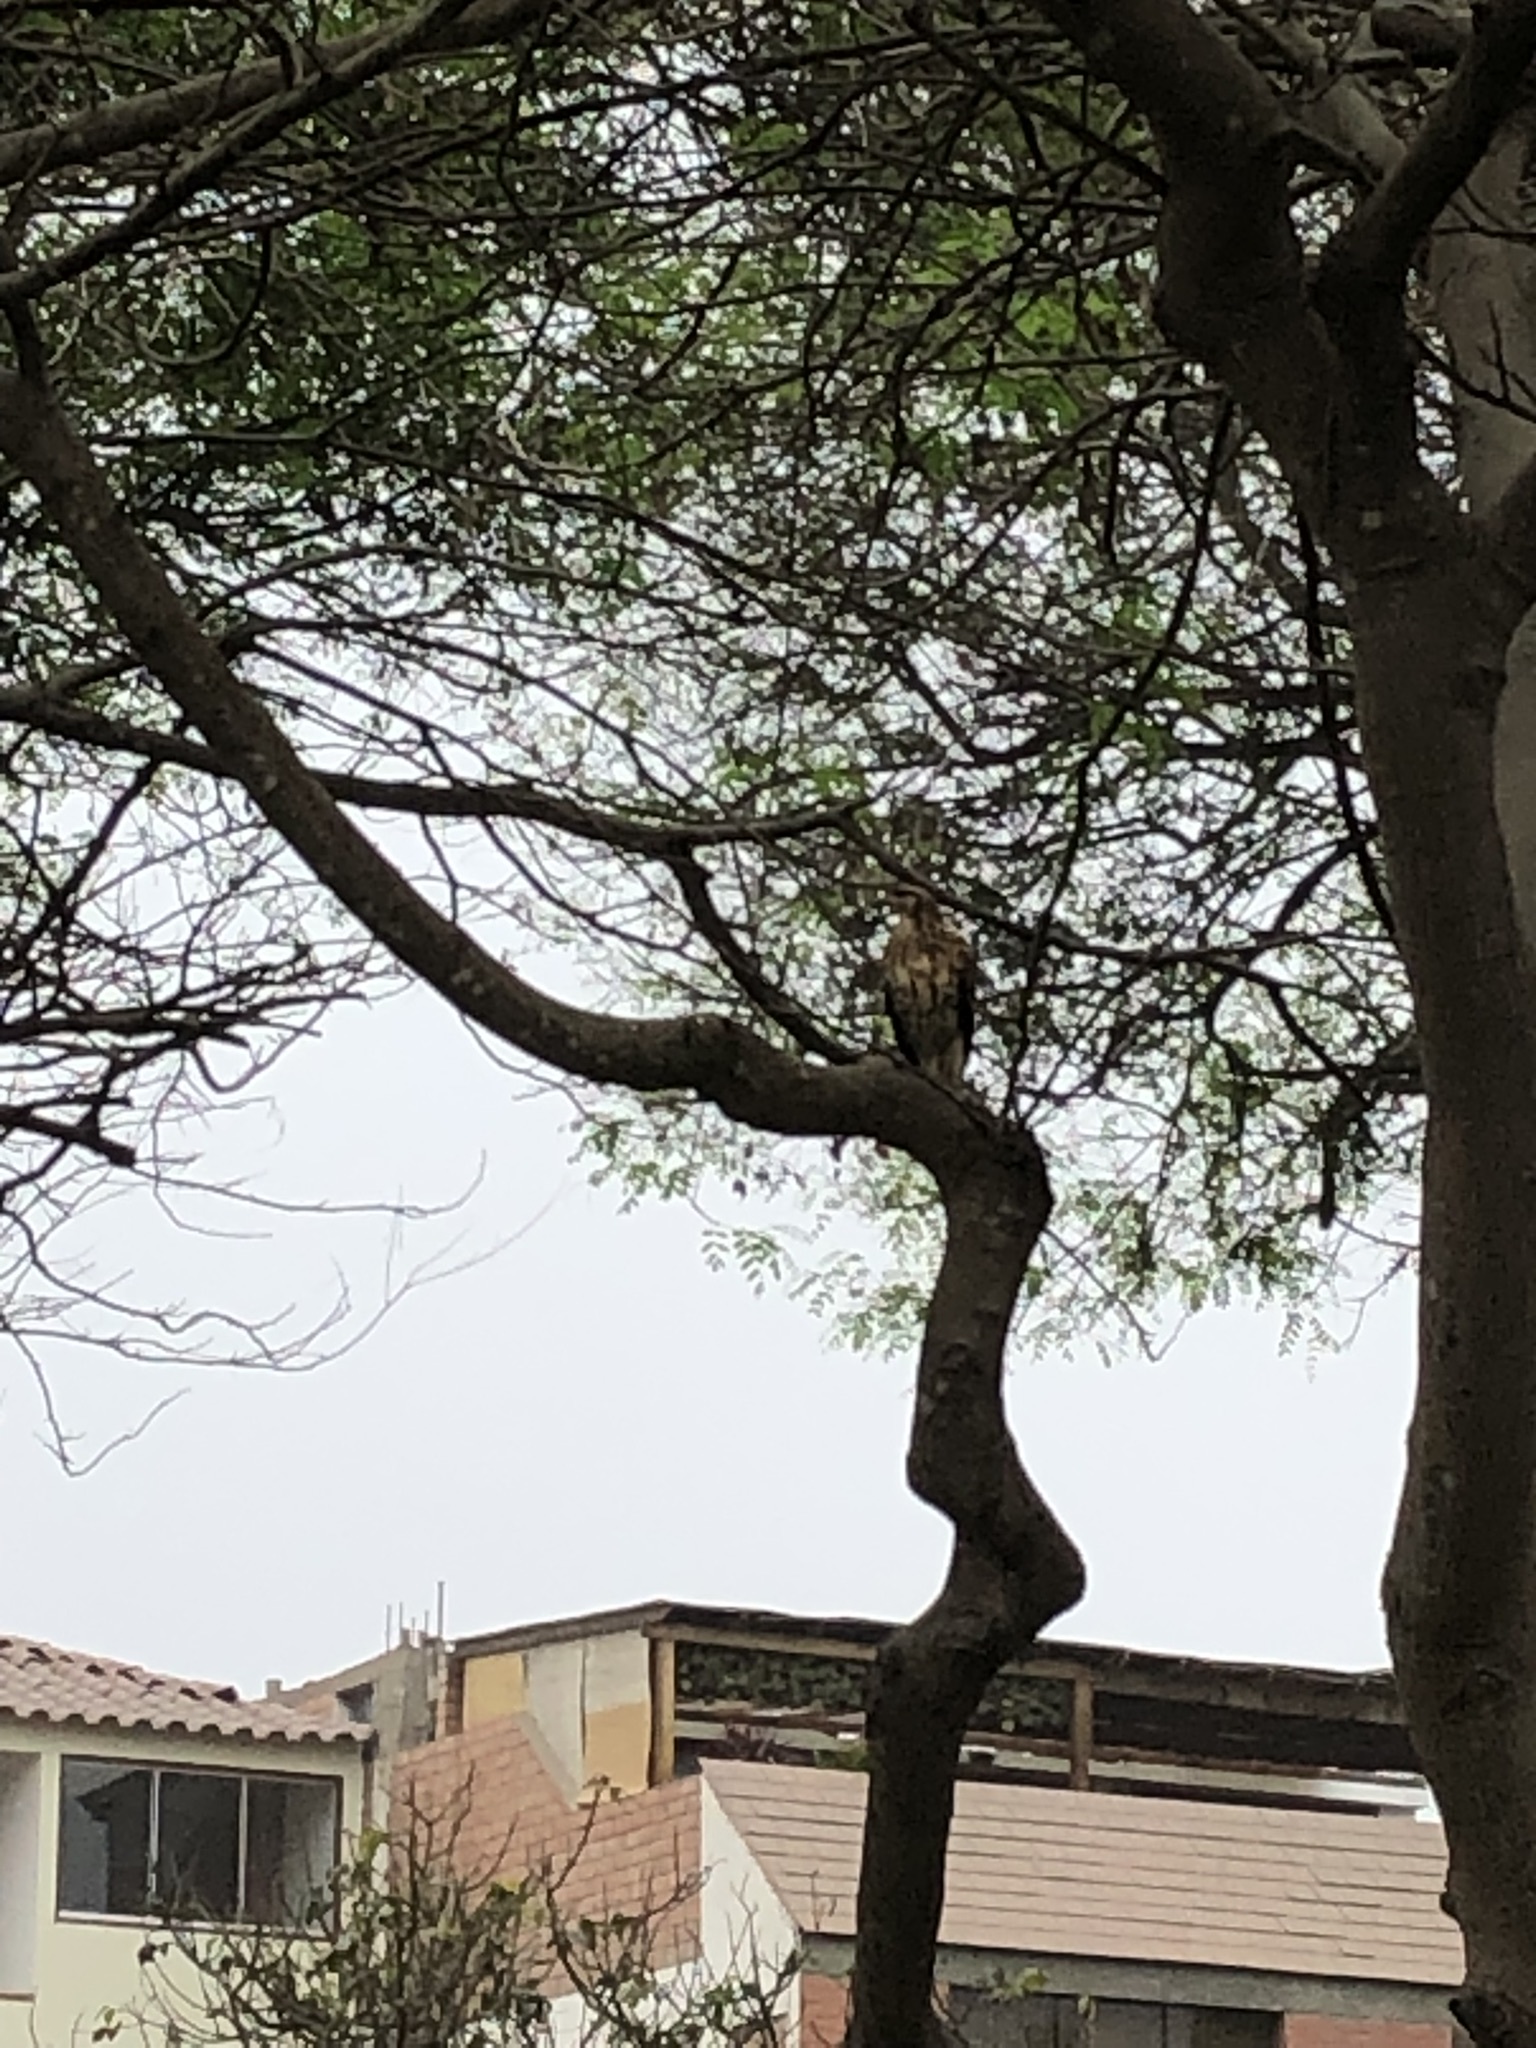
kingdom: Animalia
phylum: Chordata
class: Aves
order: Accipitriformes
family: Accipitridae
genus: Parabuteo
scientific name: Parabuteo unicinctus
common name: Harris's hawk
